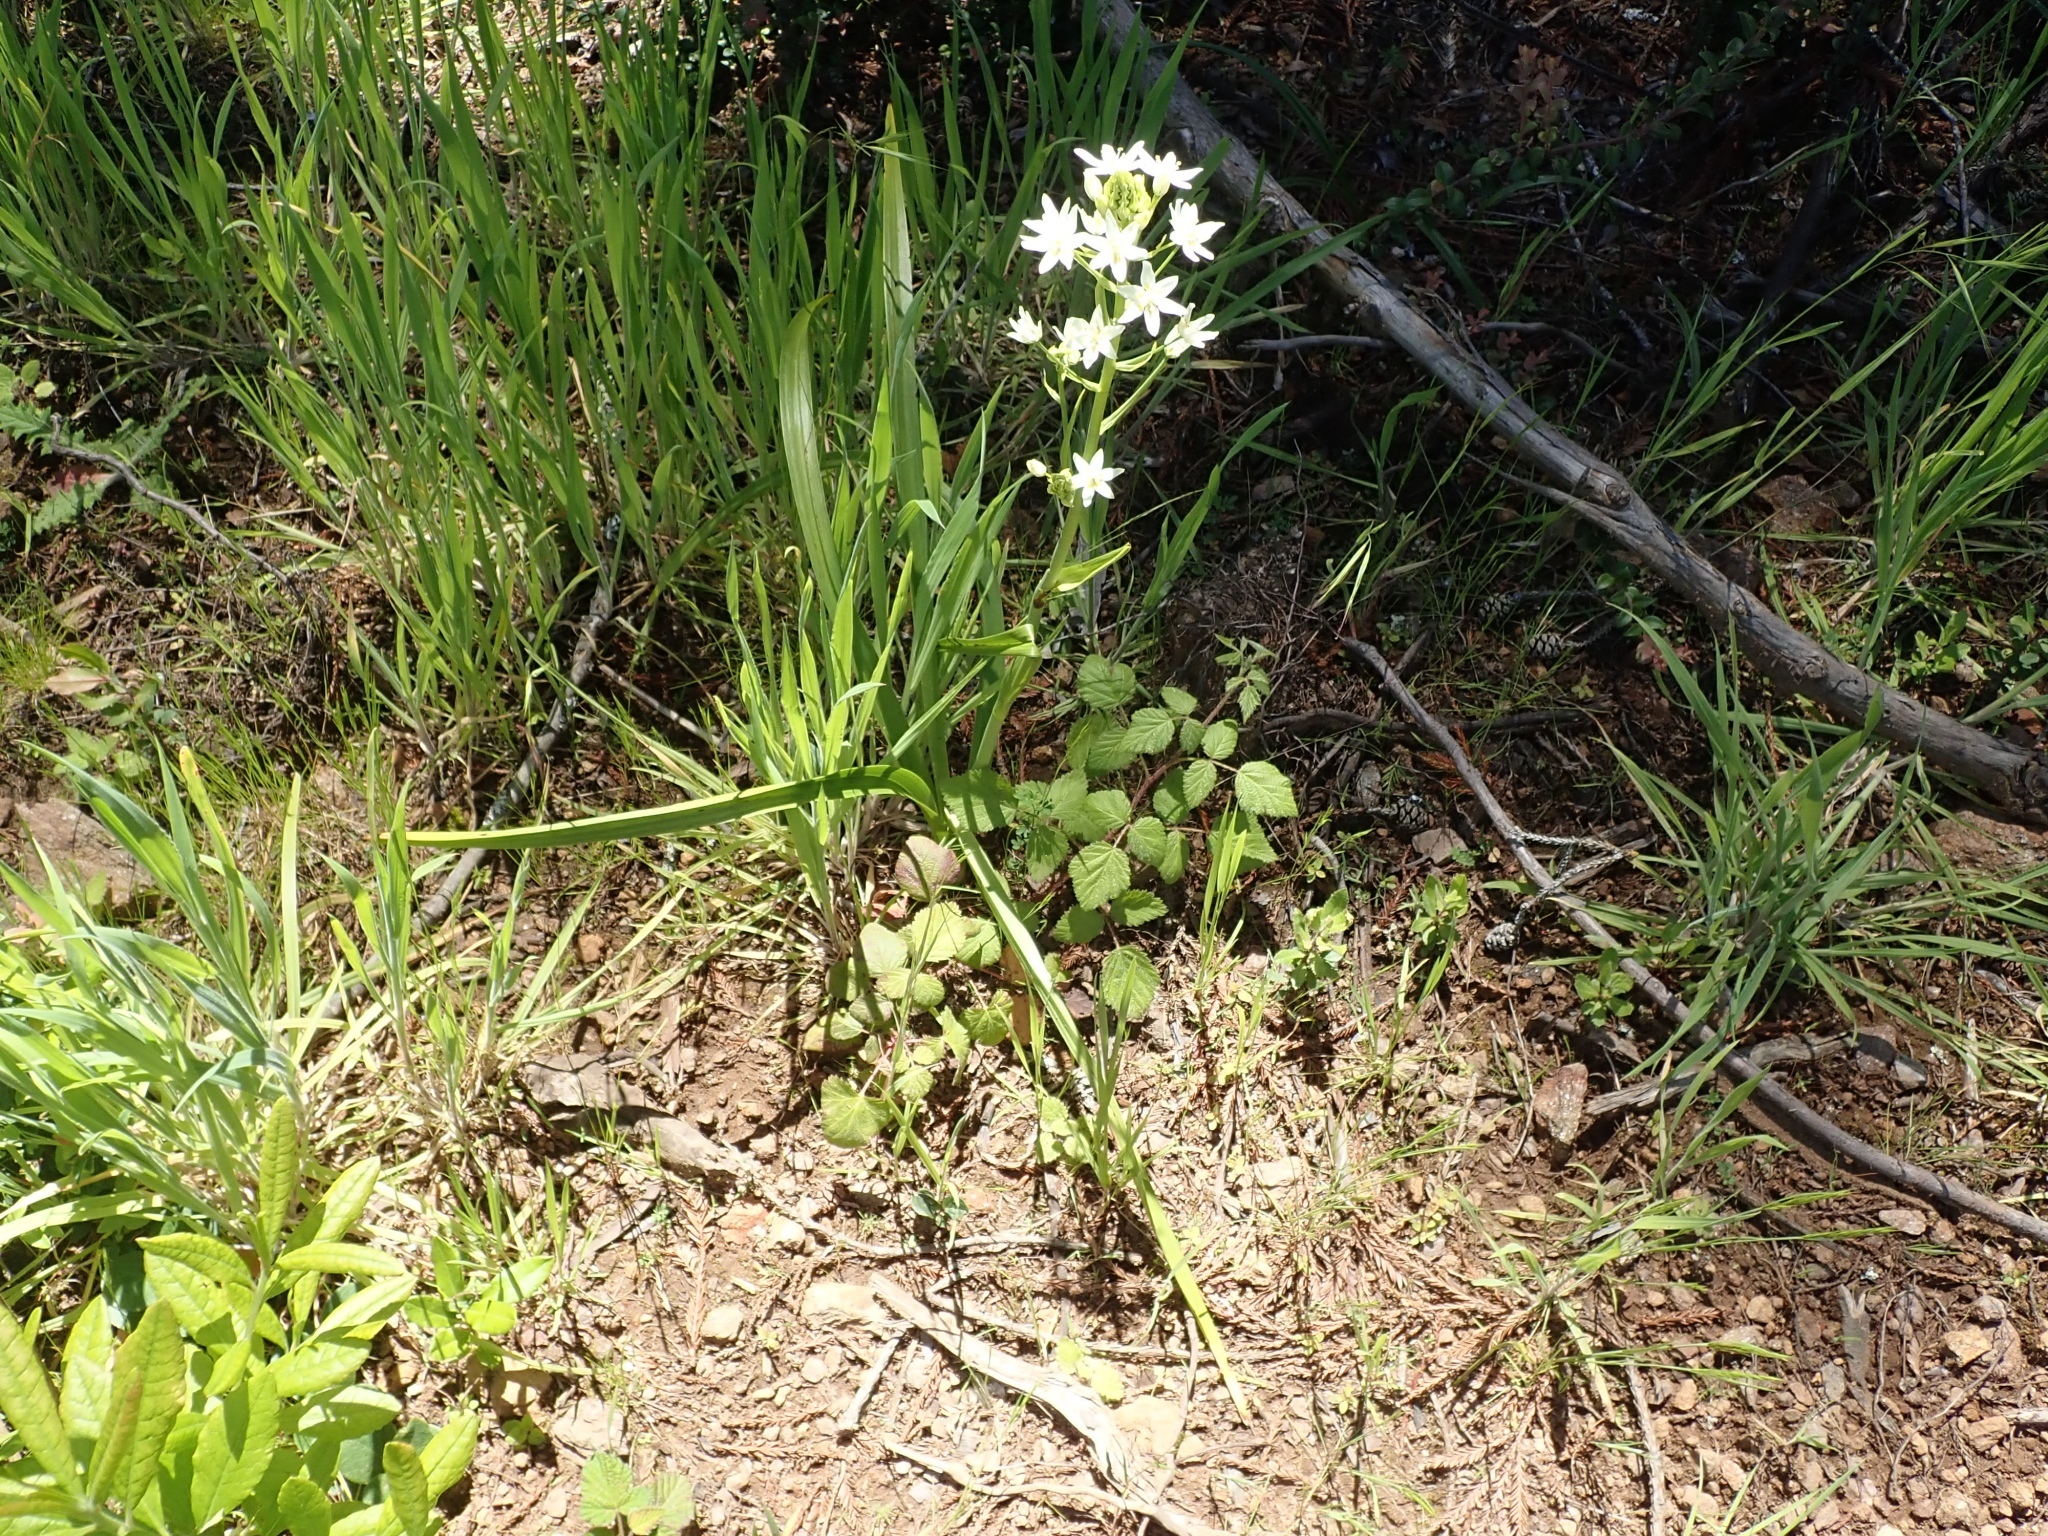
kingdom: Plantae
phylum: Tracheophyta
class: Liliopsida
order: Liliales
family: Melanthiaceae
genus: Toxicoscordion
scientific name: Toxicoscordion fremontii
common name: Fremont's death camas
